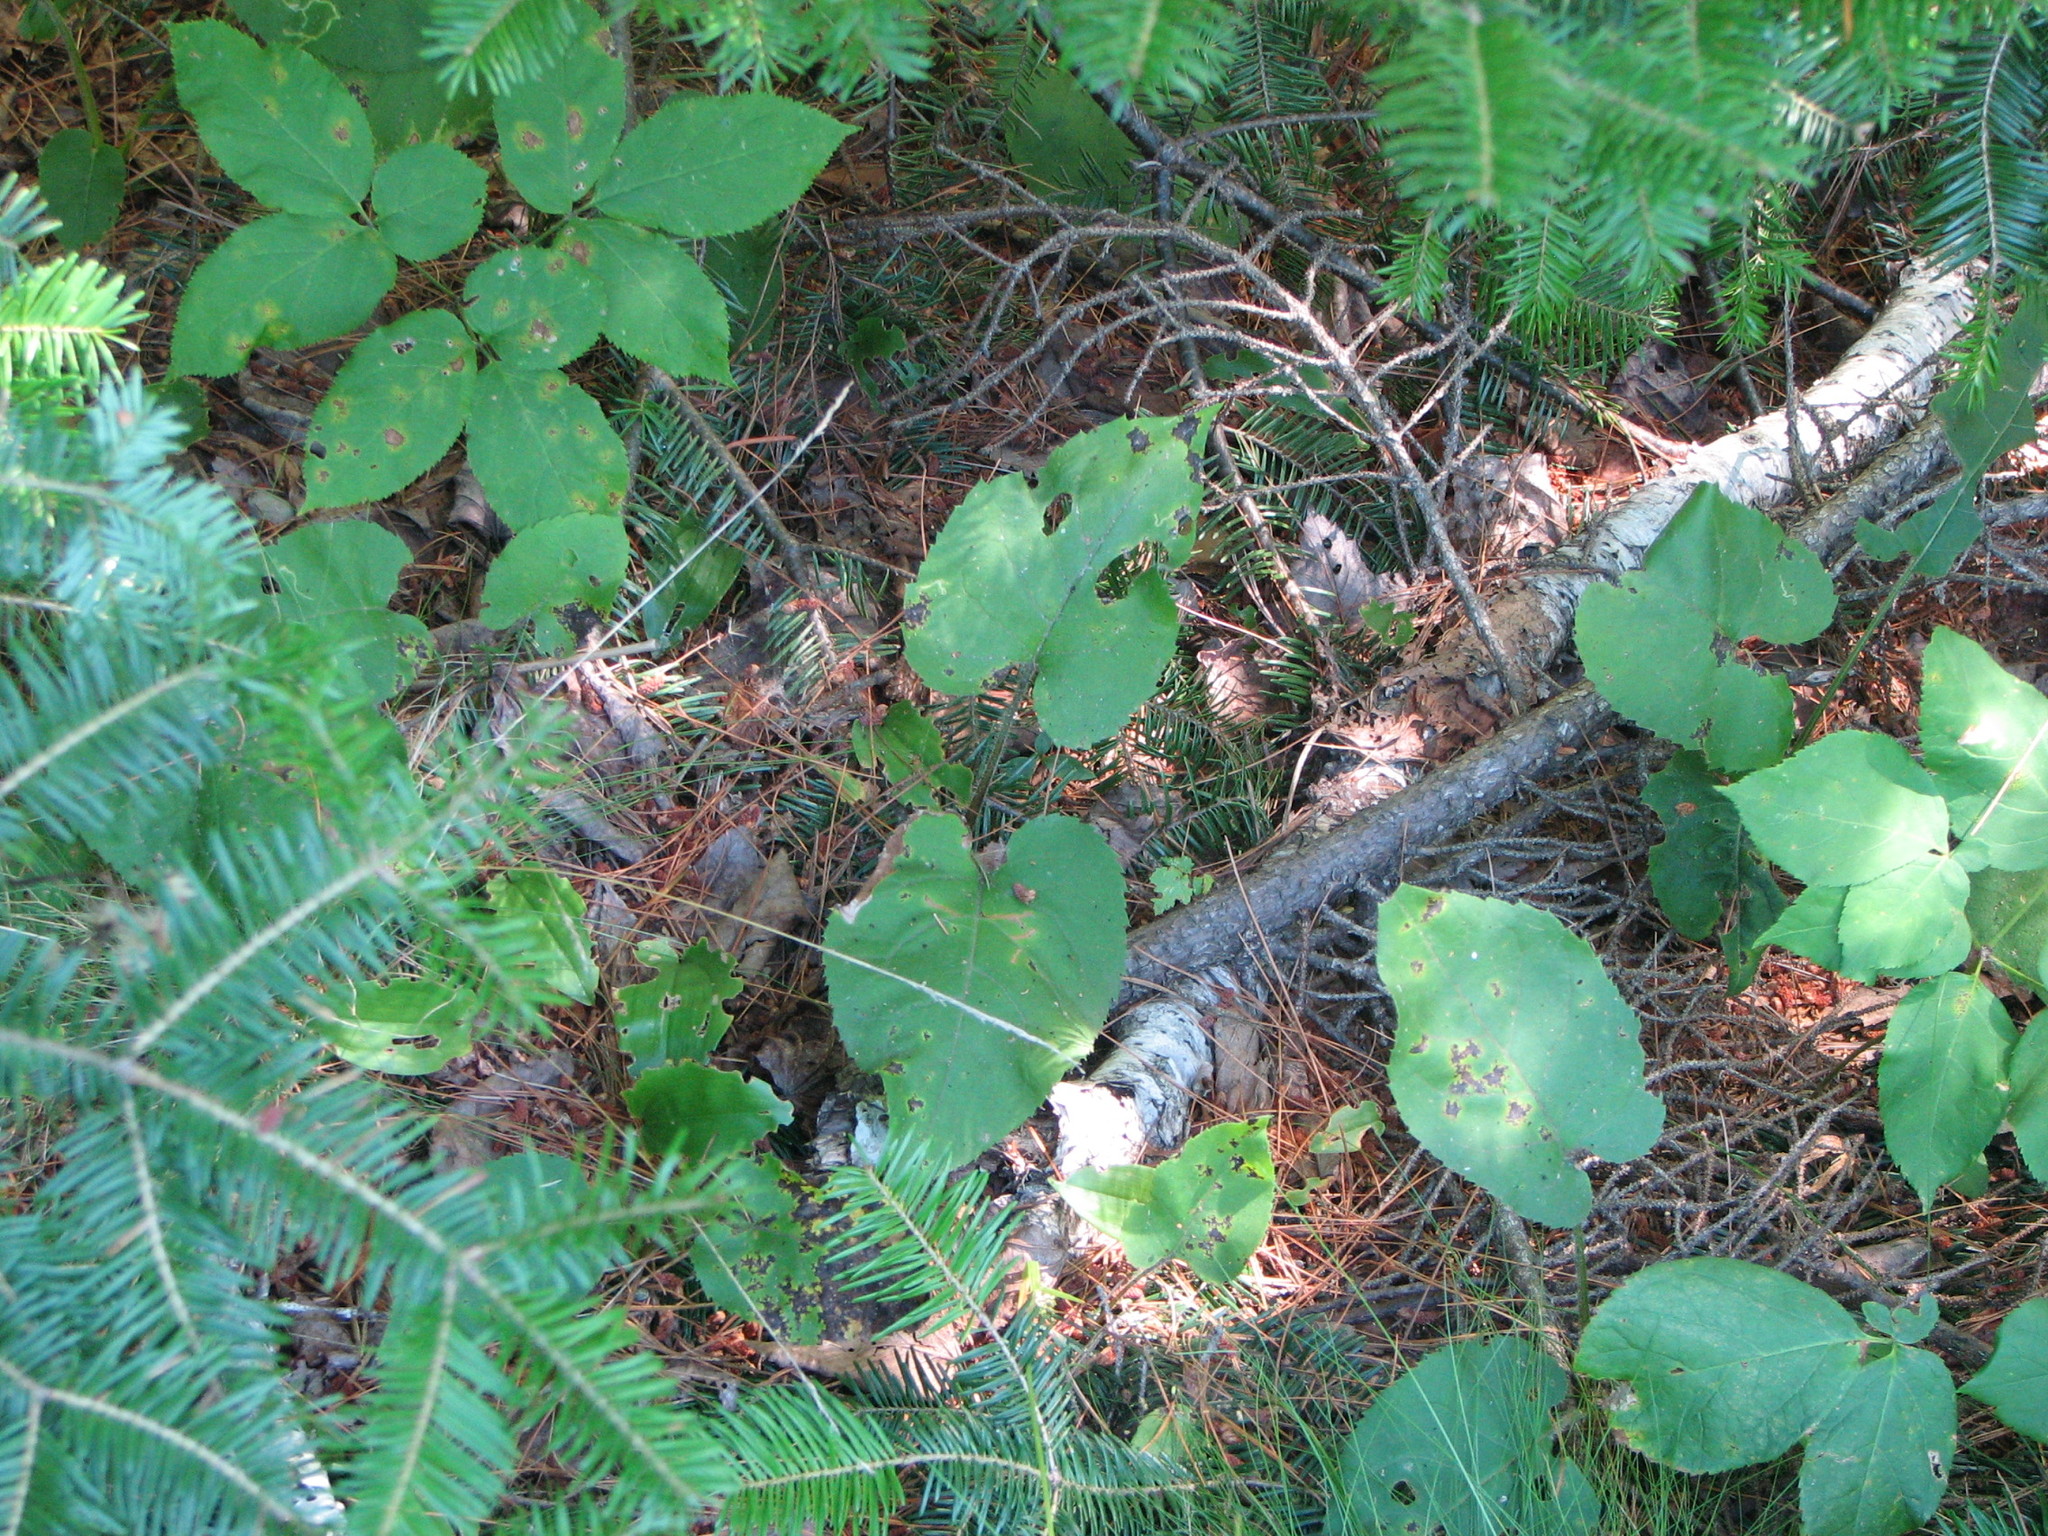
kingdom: Plantae
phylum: Tracheophyta
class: Magnoliopsida
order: Asterales
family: Asteraceae
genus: Eurybia
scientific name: Eurybia macrophylla
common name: Big-leaved aster
